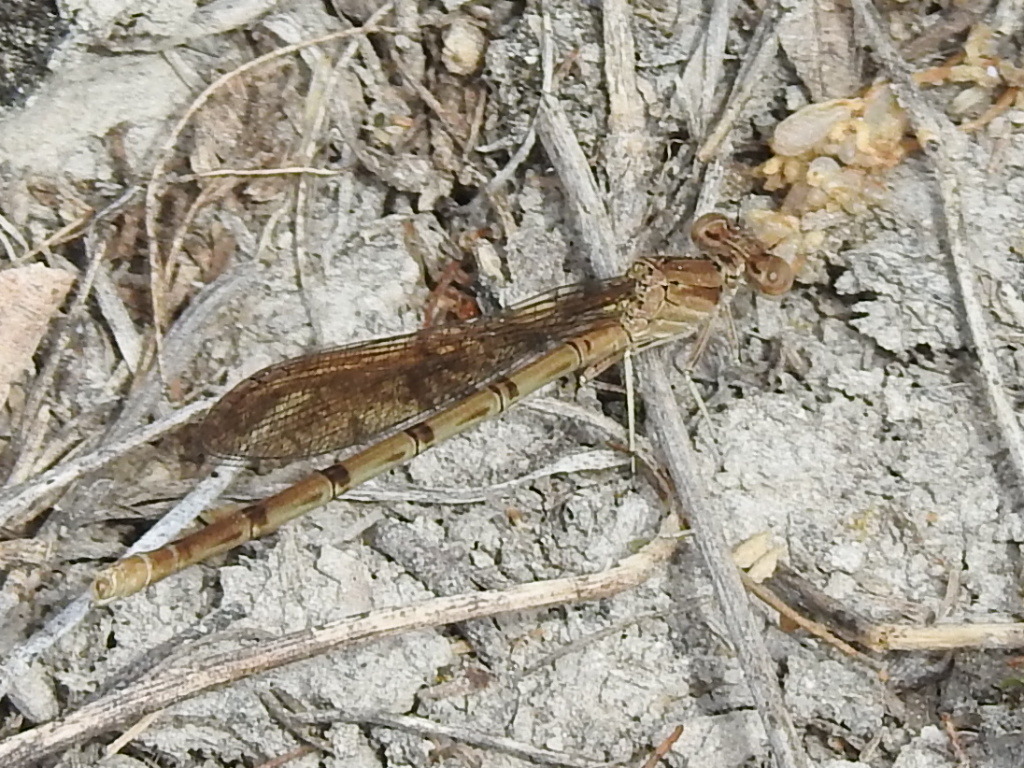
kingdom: Animalia
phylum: Arthropoda
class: Insecta
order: Odonata
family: Coenagrionidae
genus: Argia
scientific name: Argia sedula
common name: Blue-ringed dancer
